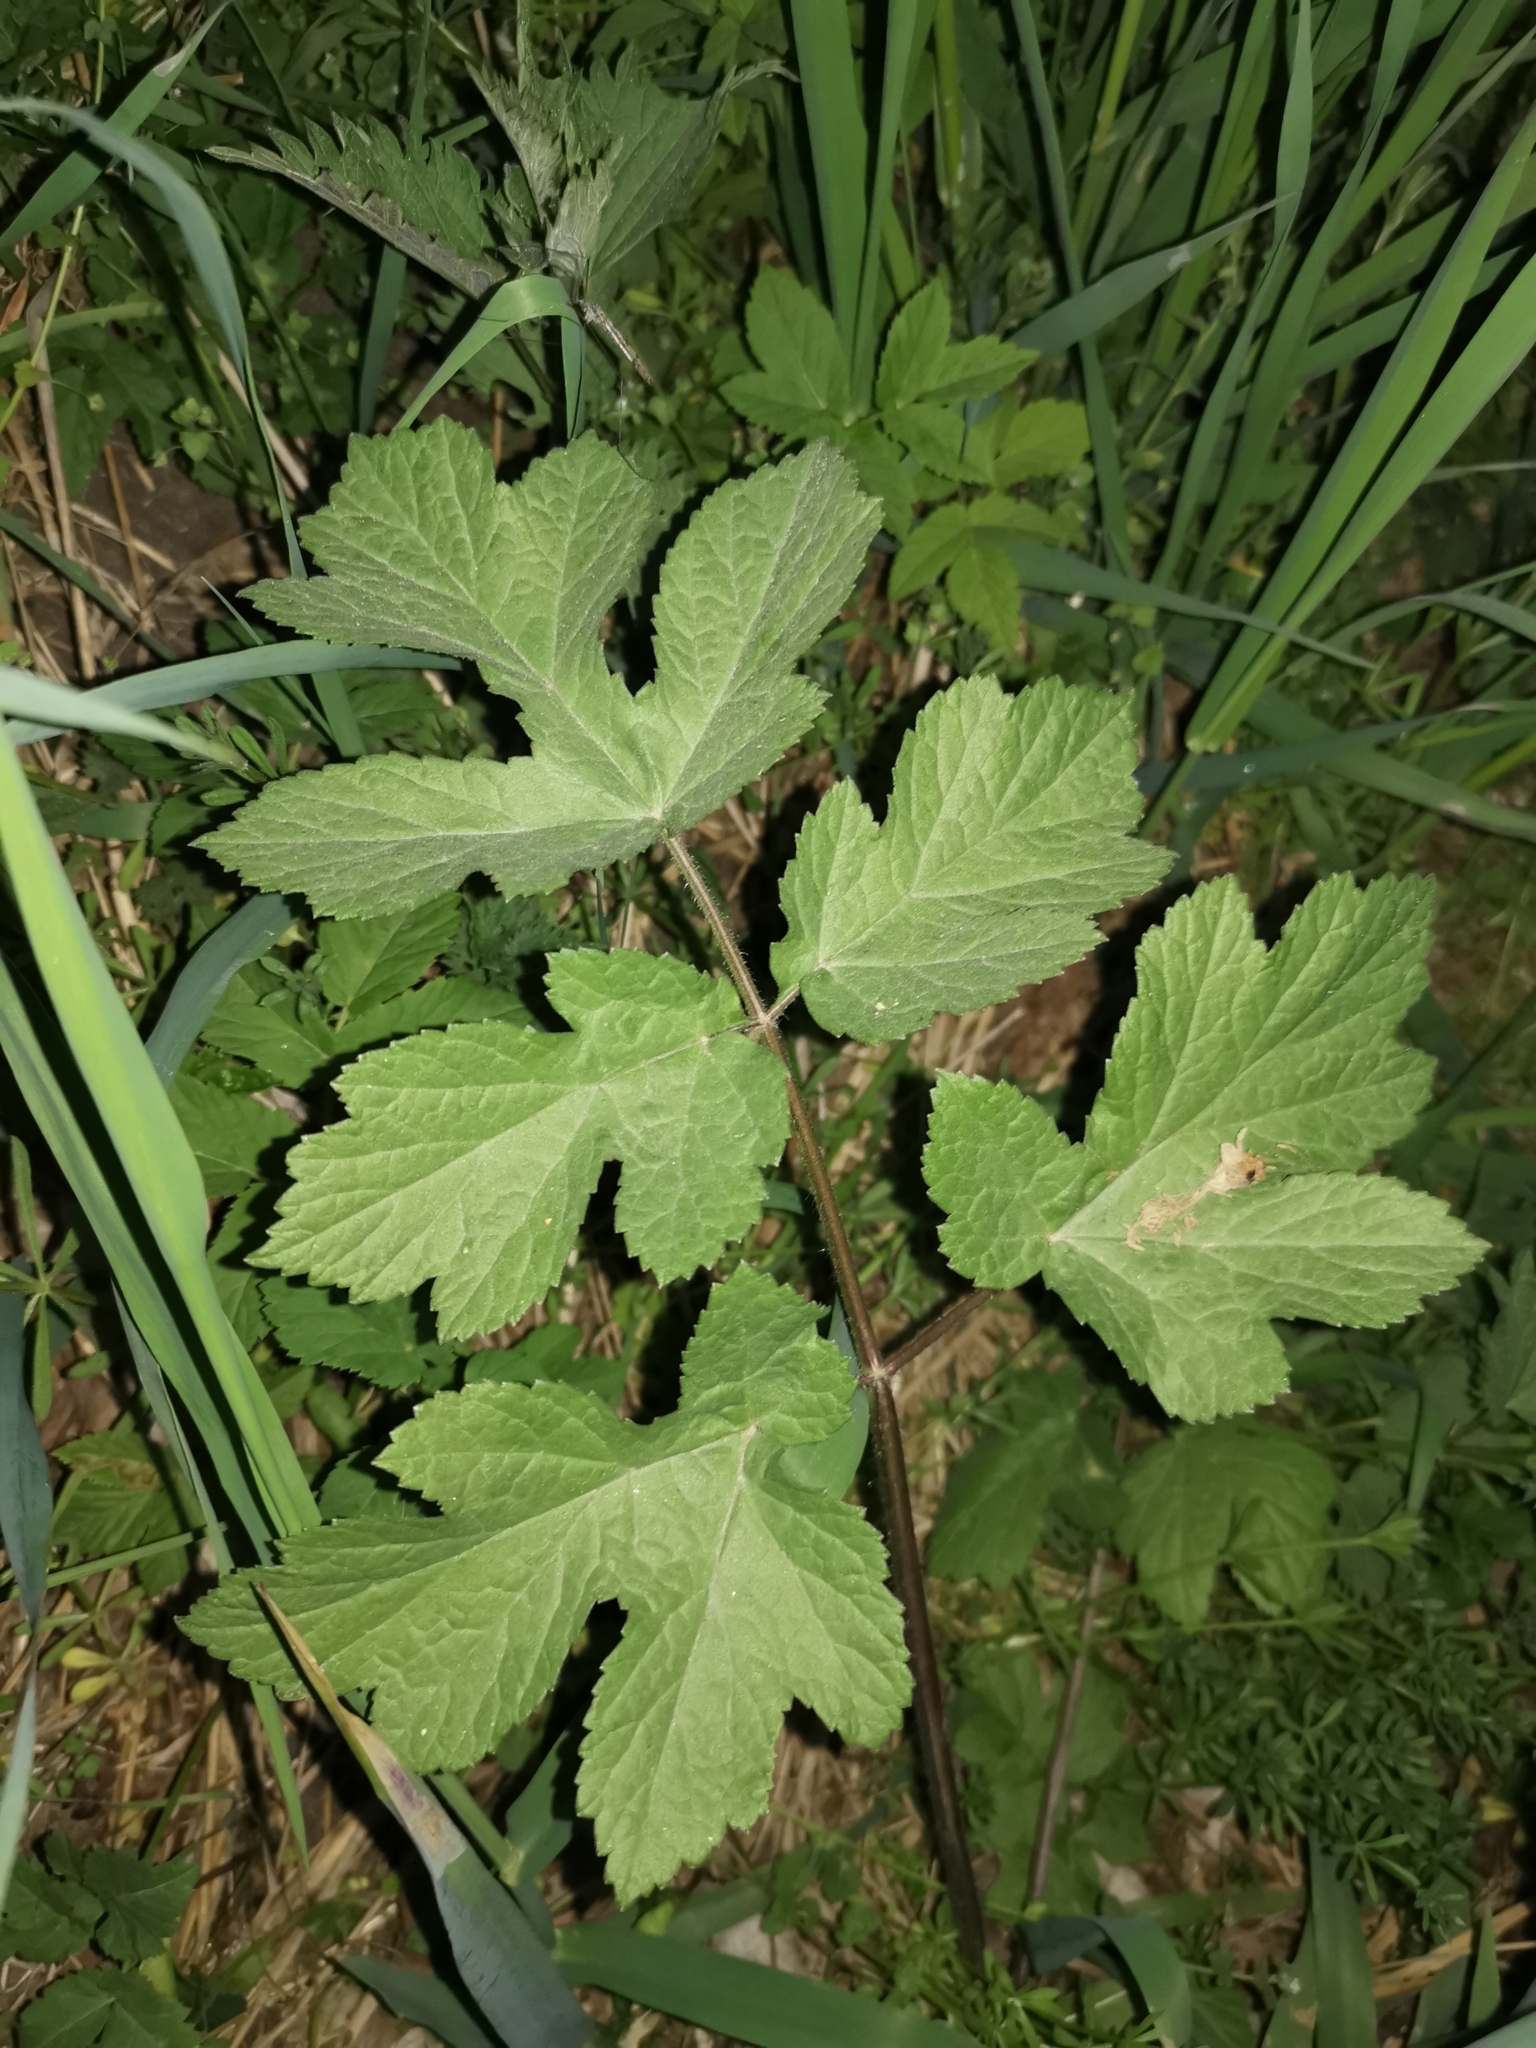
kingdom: Plantae
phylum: Tracheophyta
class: Magnoliopsida
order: Apiales
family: Apiaceae
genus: Heracleum
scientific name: Heracleum sphondylium
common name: Hogweed
